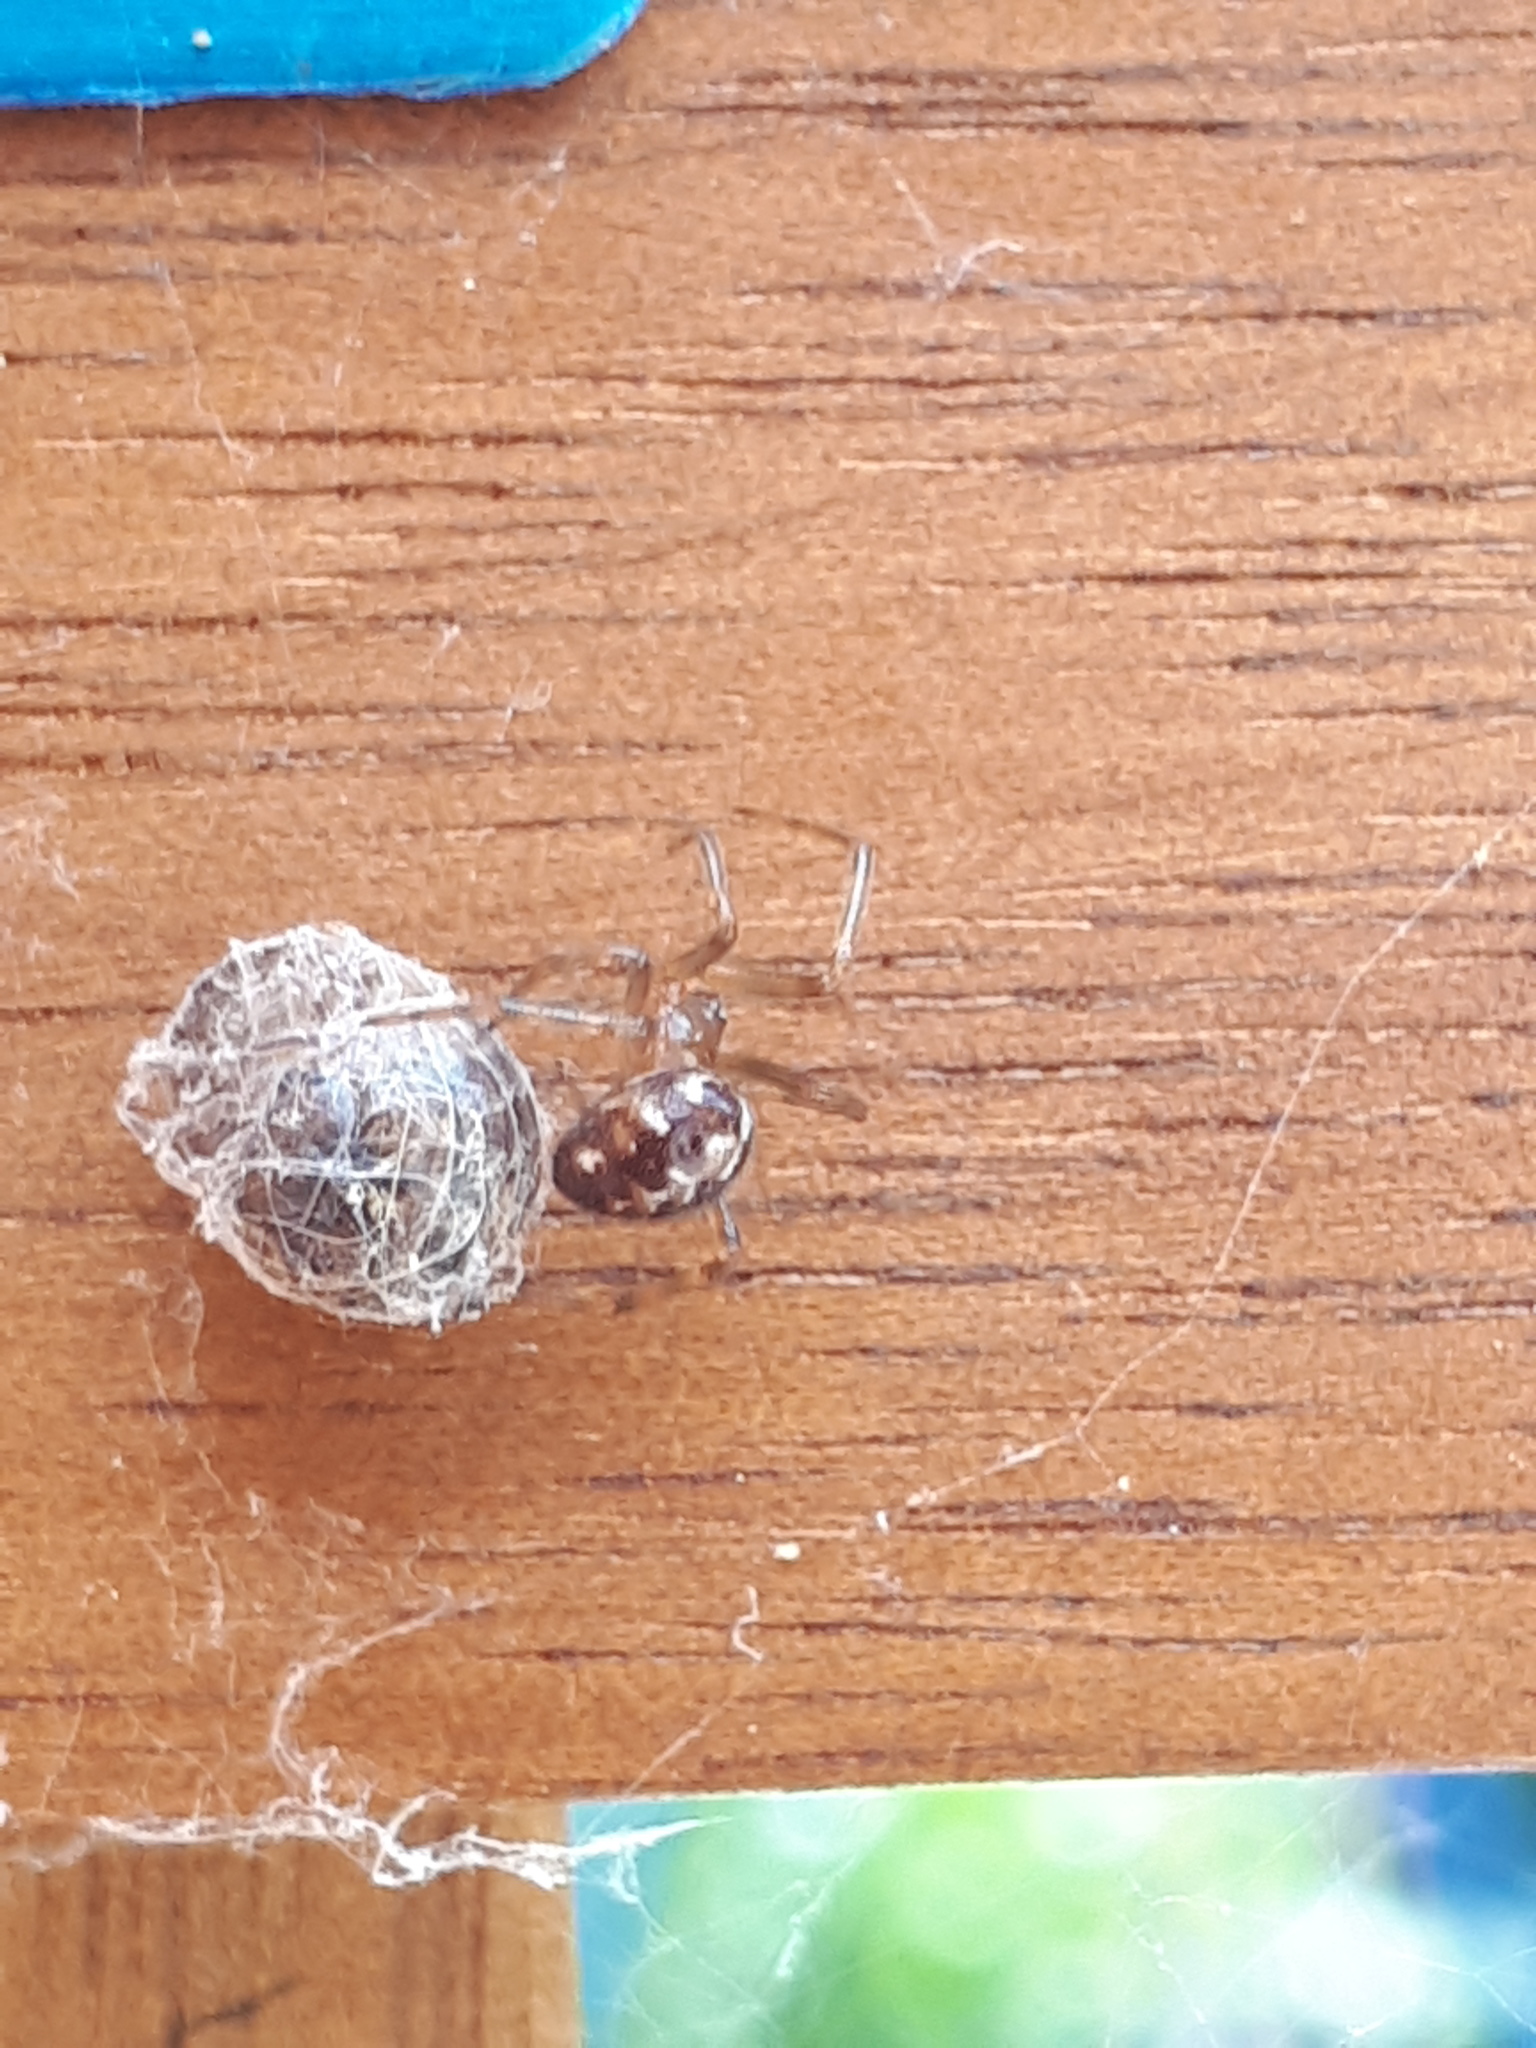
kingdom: Animalia
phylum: Arthropoda
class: Arachnida
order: Araneae
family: Theridiidae
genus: Steatoda
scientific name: Steatoda triangulosa
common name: Triangulate bud spider
